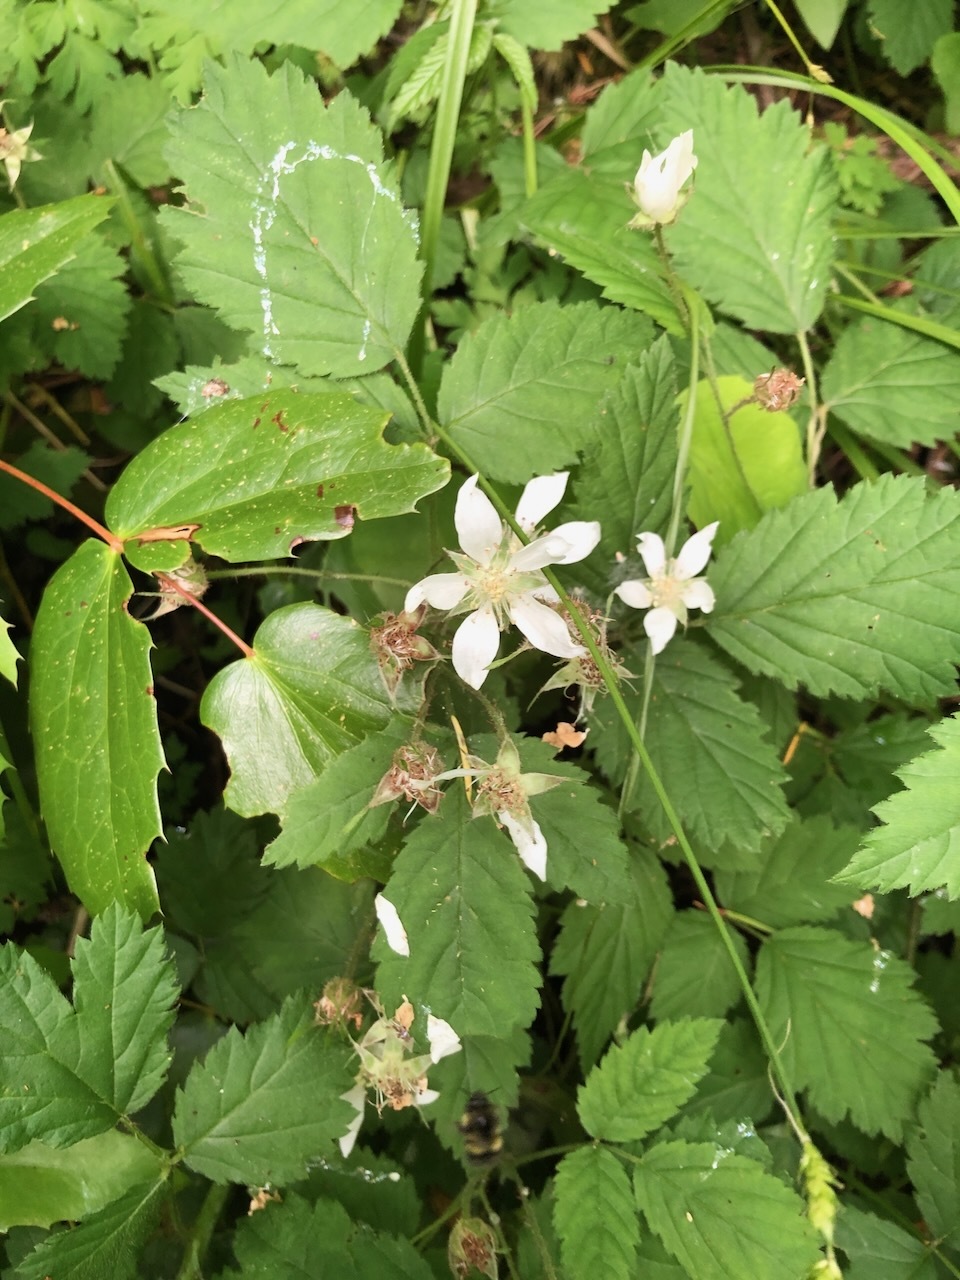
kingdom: Plantae
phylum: Tracheophyta
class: Magnoliopsida
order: Rosales
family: Rosaceae
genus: Rubus
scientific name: Rubus ursinus
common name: Pacific blackberry
